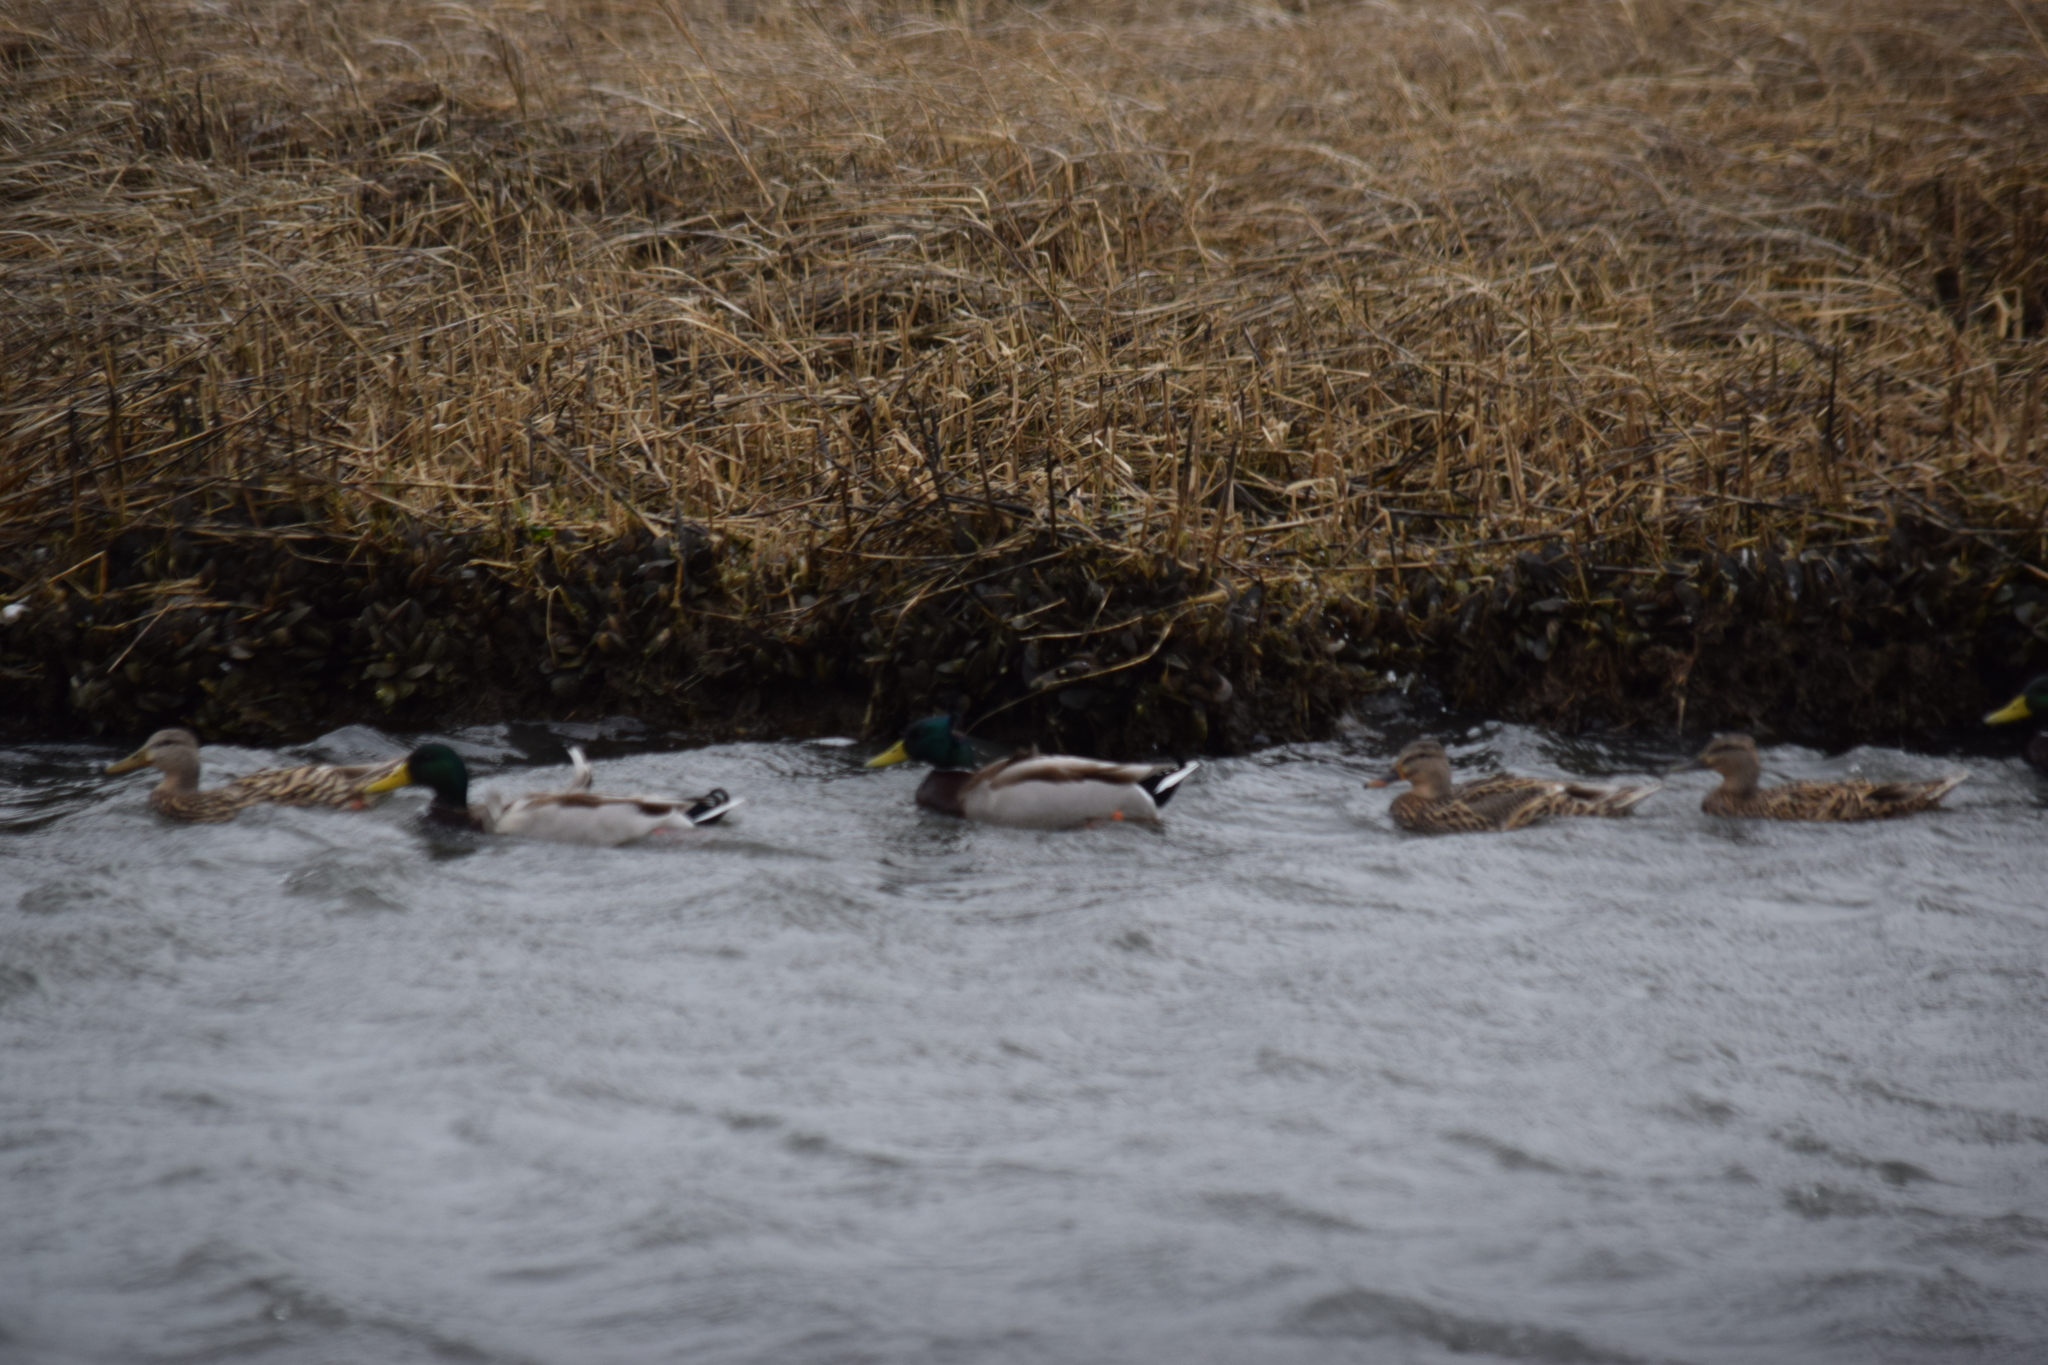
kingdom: Animalia
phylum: Chordata
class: Aves
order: Anseriformes
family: Anatidae
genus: Anas
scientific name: Anas platyrhynchos
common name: Mallard
